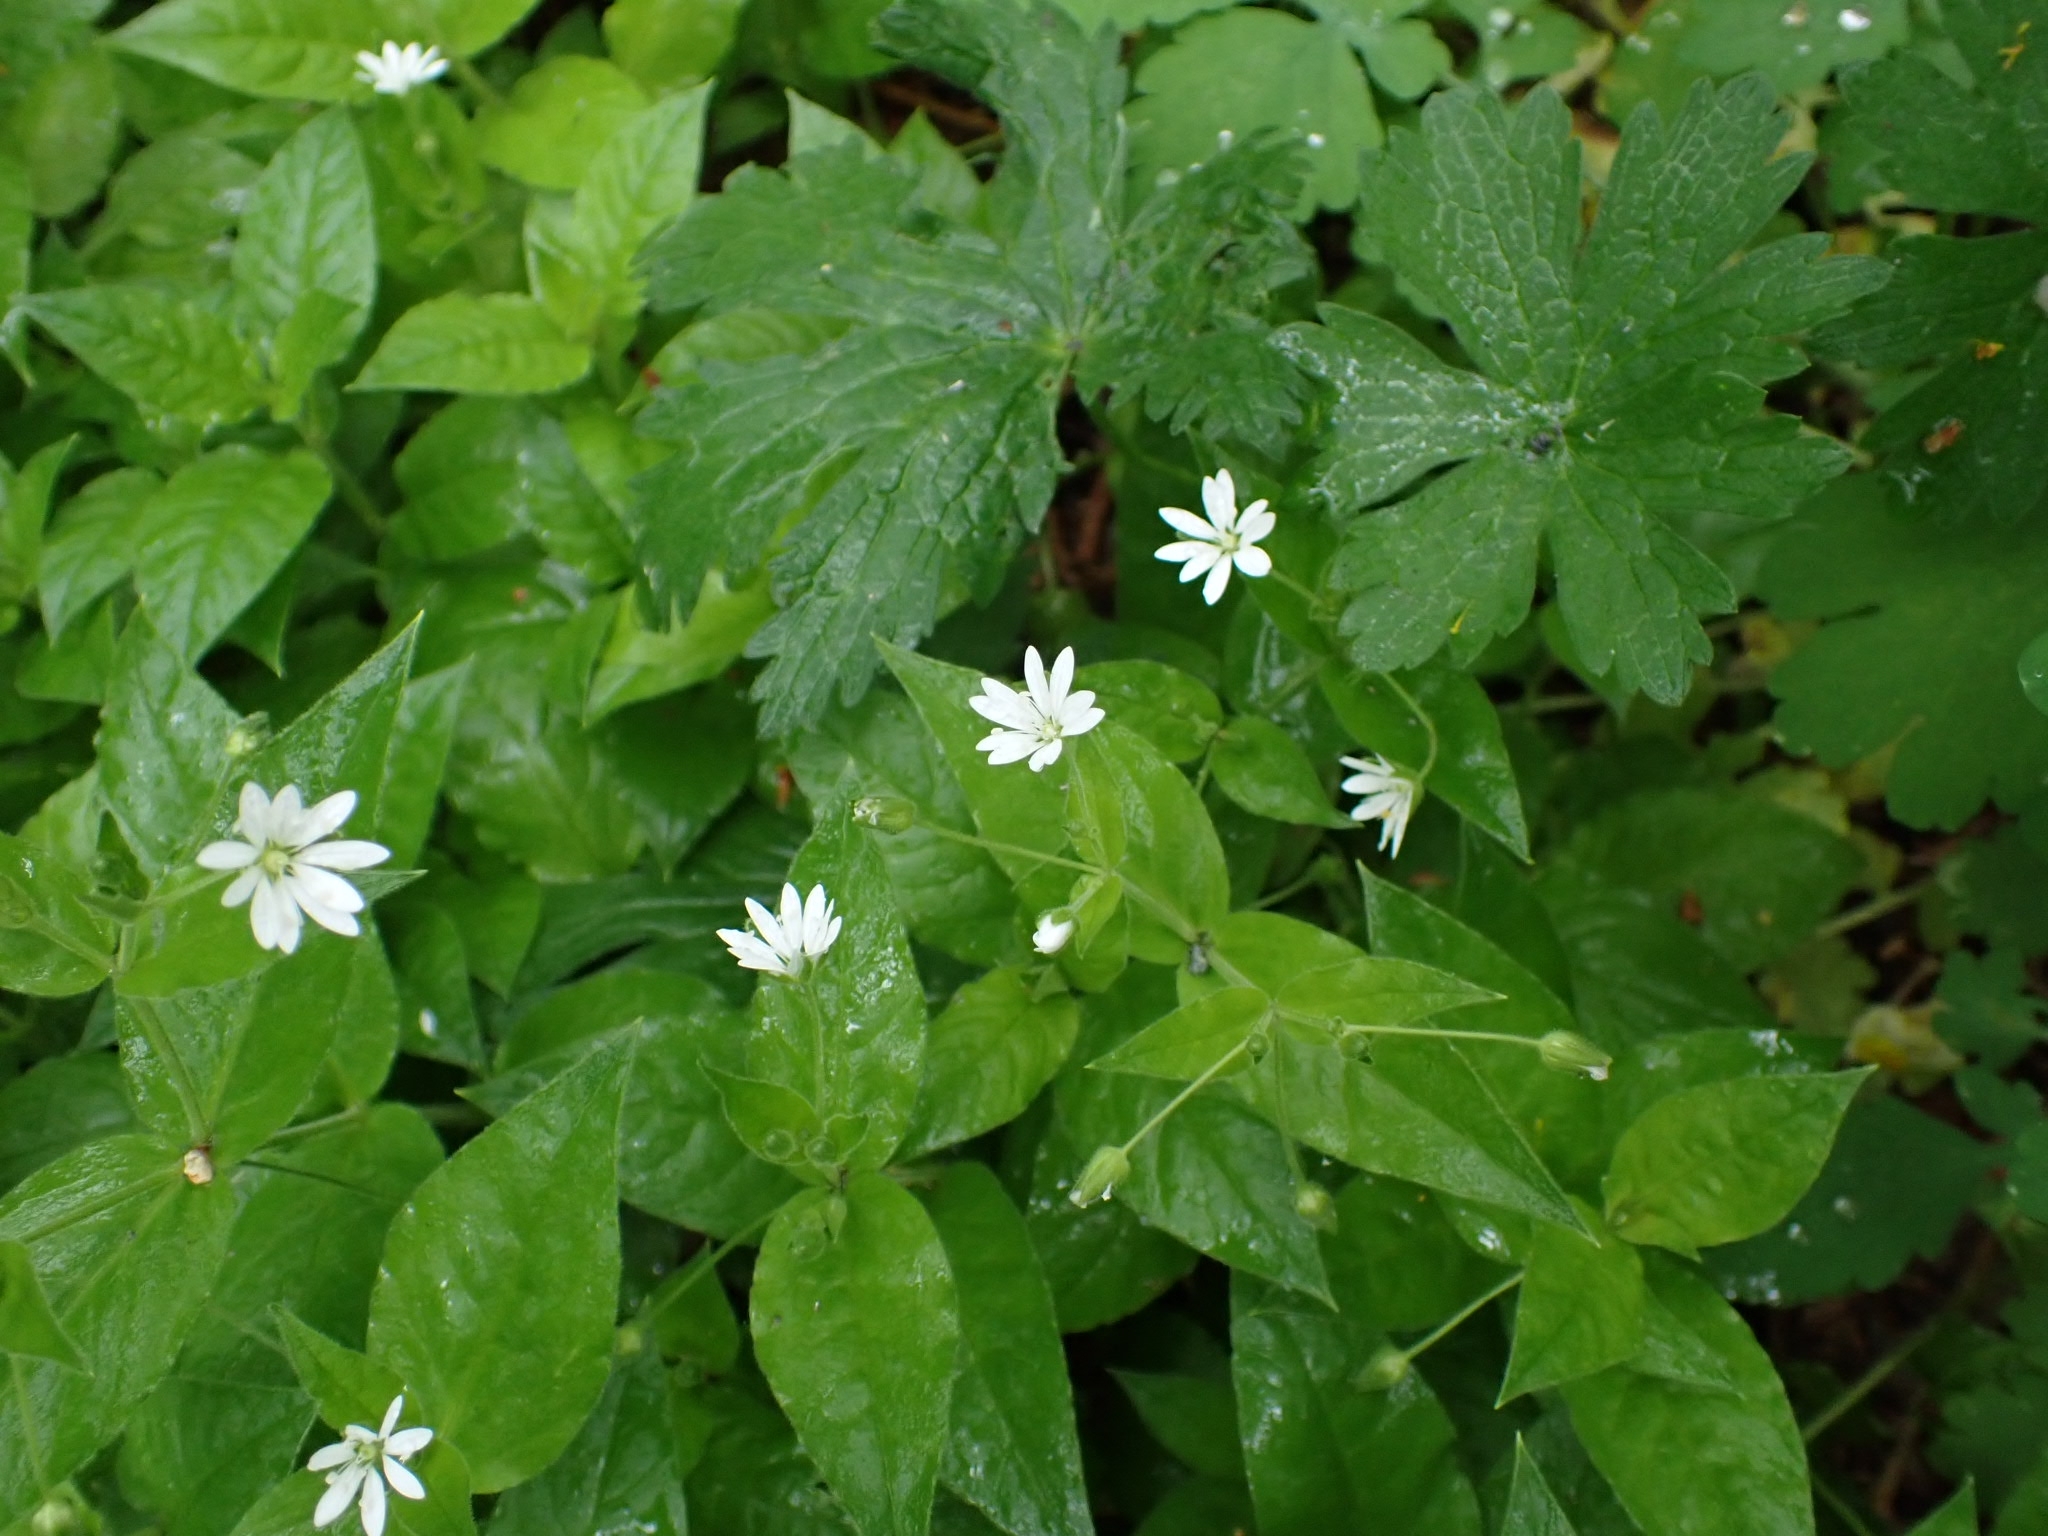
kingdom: Plantae
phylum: Tracheophyta
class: Magnoliopsida
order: Caryophyllales
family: Caryophyllaceae
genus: Stellaria
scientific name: Stellaria bungeana
